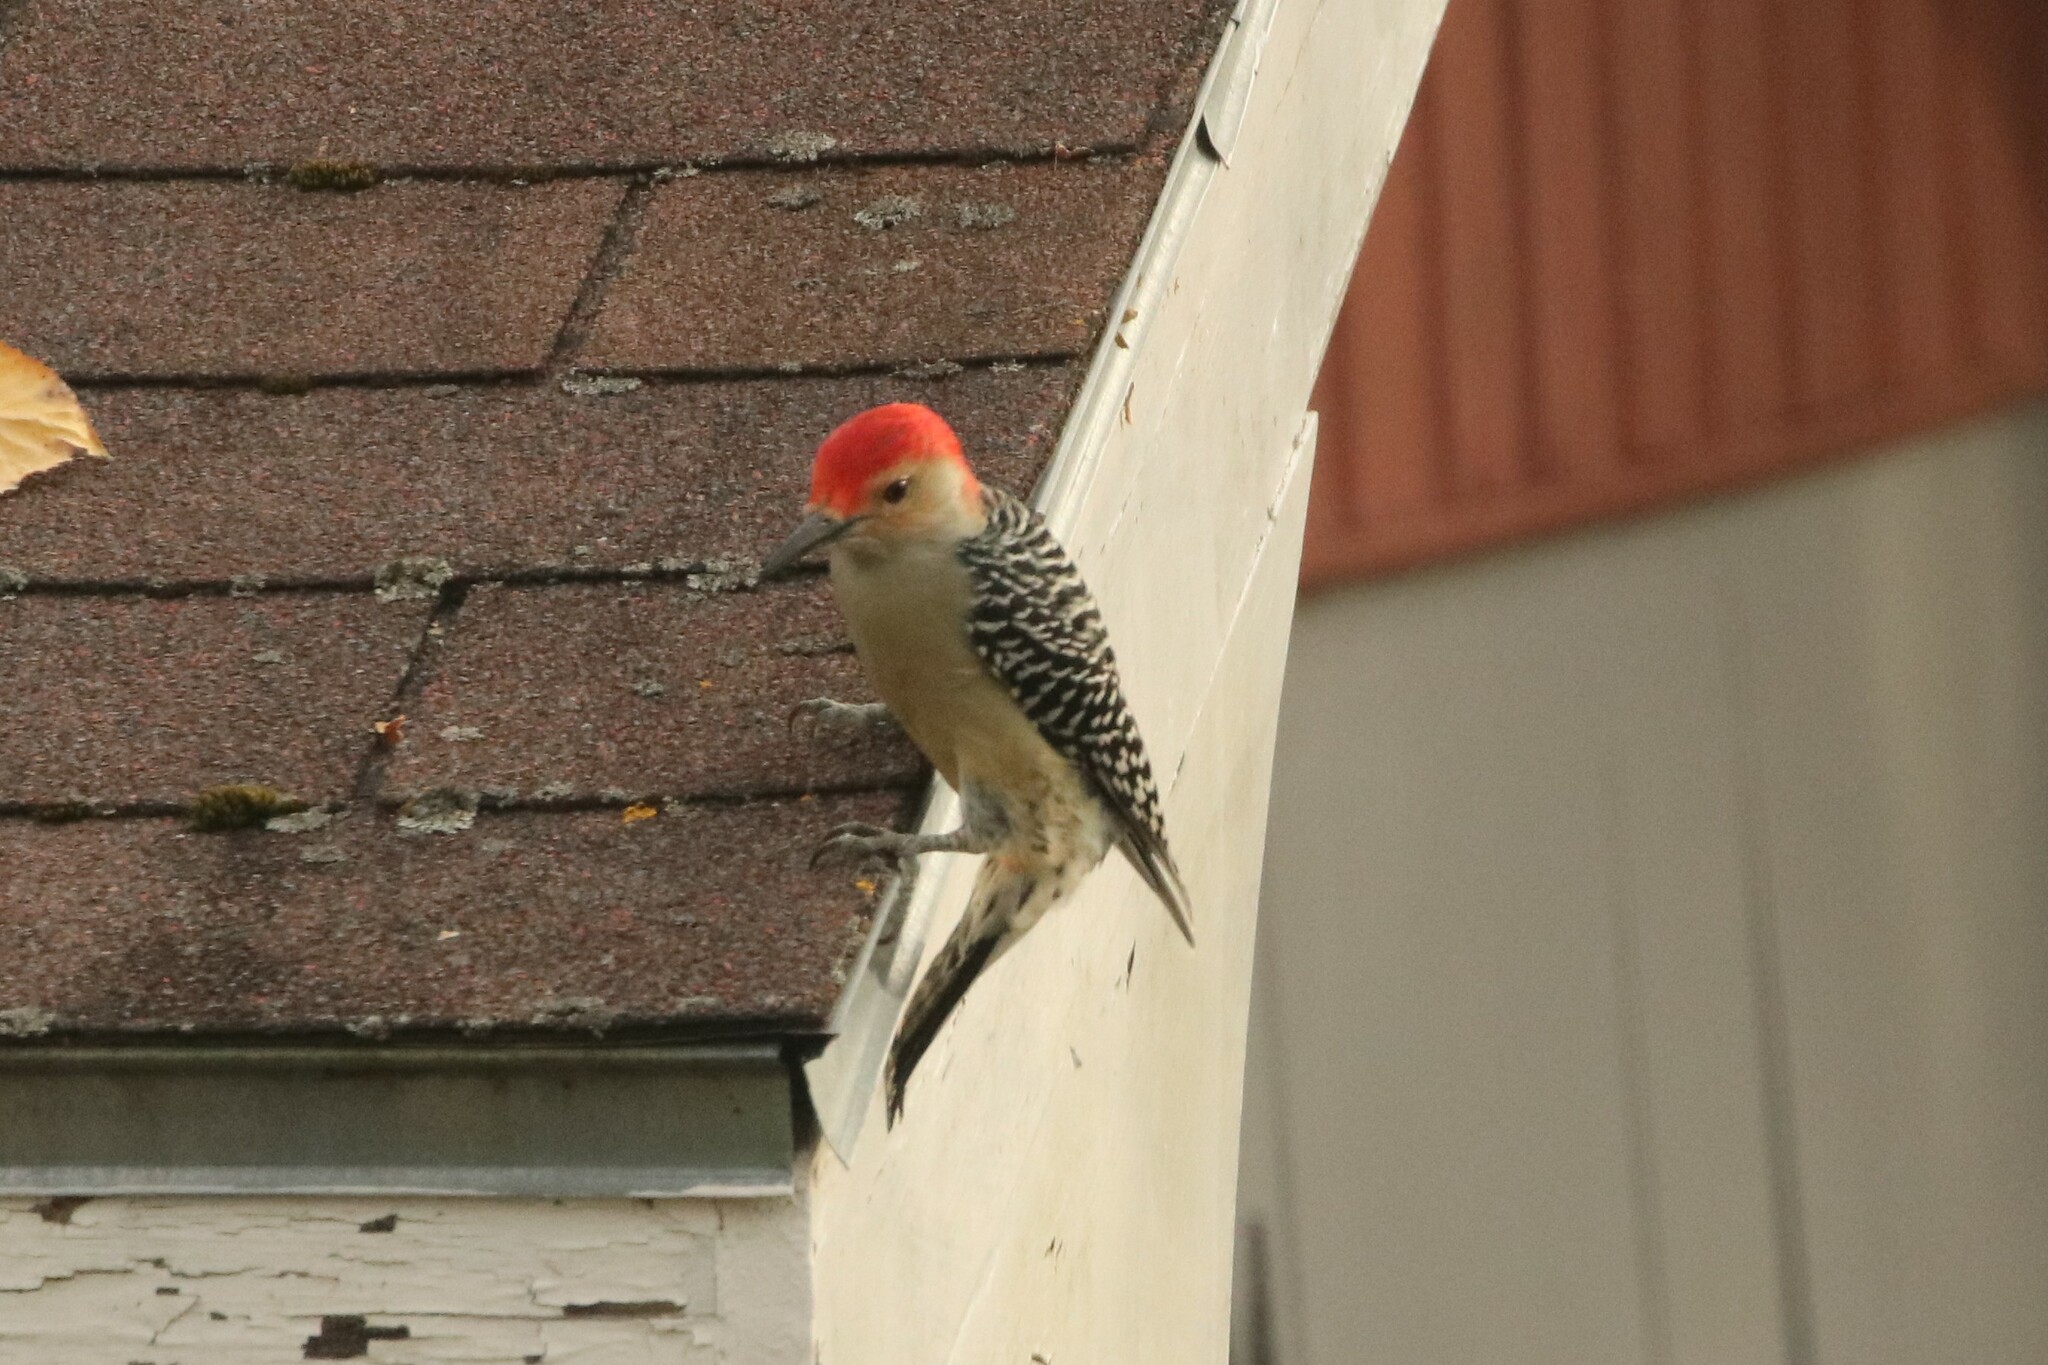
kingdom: Animalia
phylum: Chordata
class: Aves
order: Piciformes
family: Picidae
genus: Melanerpes
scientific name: Melanerpes carolinus
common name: Red-bellied woodpecker
